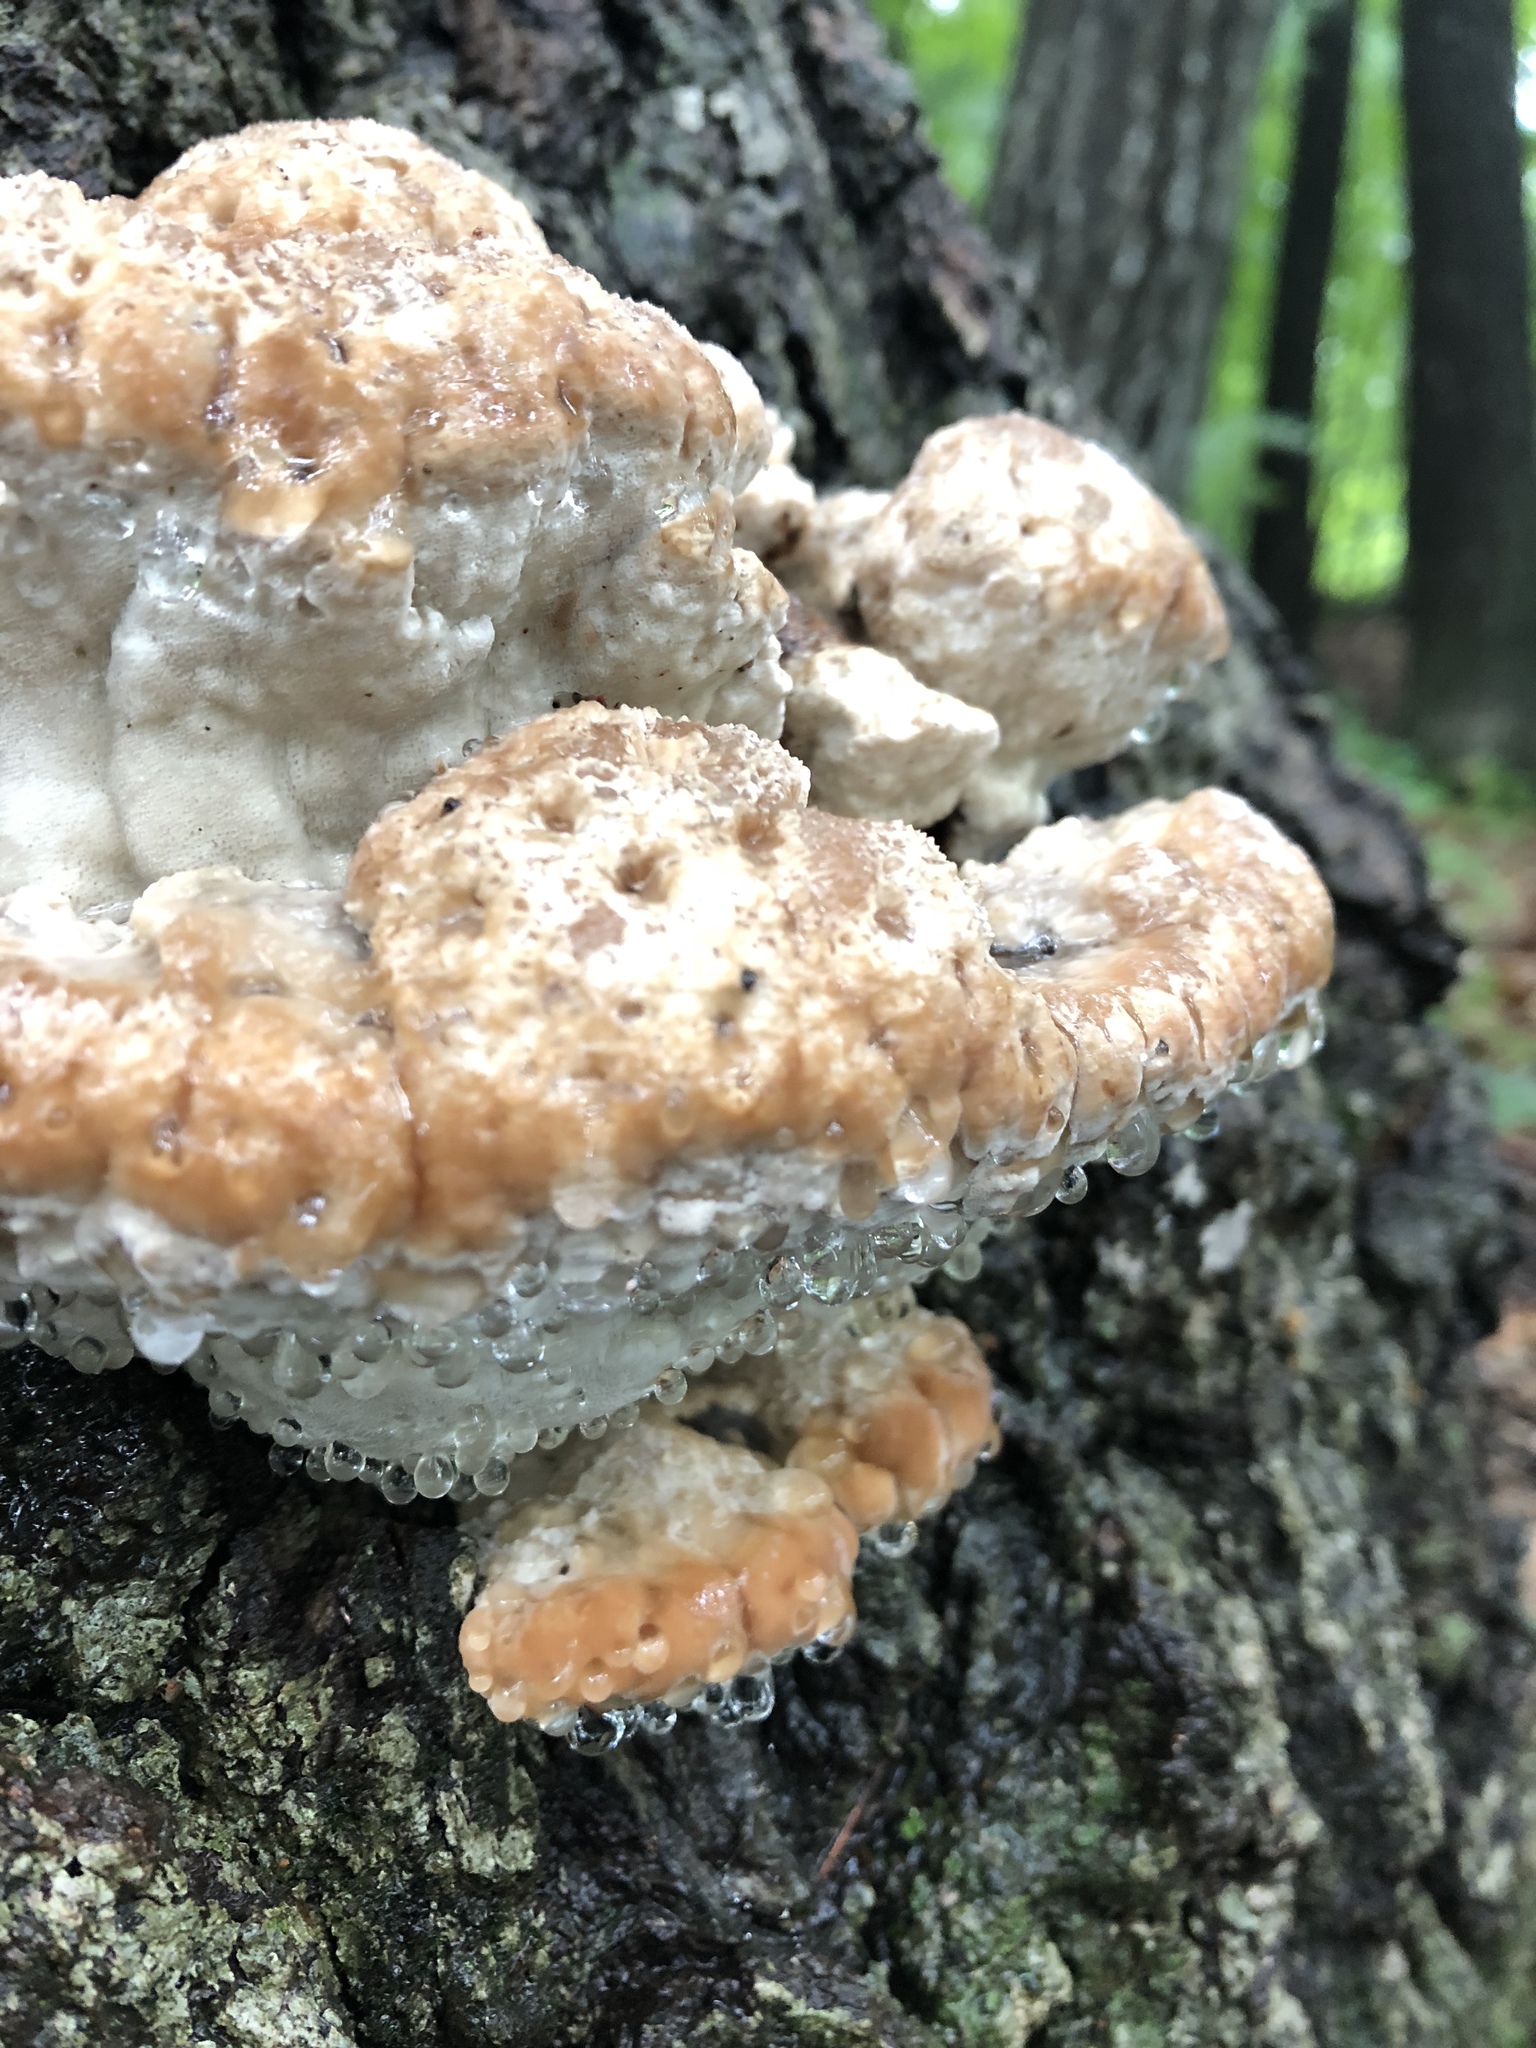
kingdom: Fungi
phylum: Basidiomycota
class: Agaricomycetes
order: Polyporales
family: Fomitopsidaceae
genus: Niveoporofomes
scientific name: Niveoporofomes spraguei
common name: Green cheese polypore
